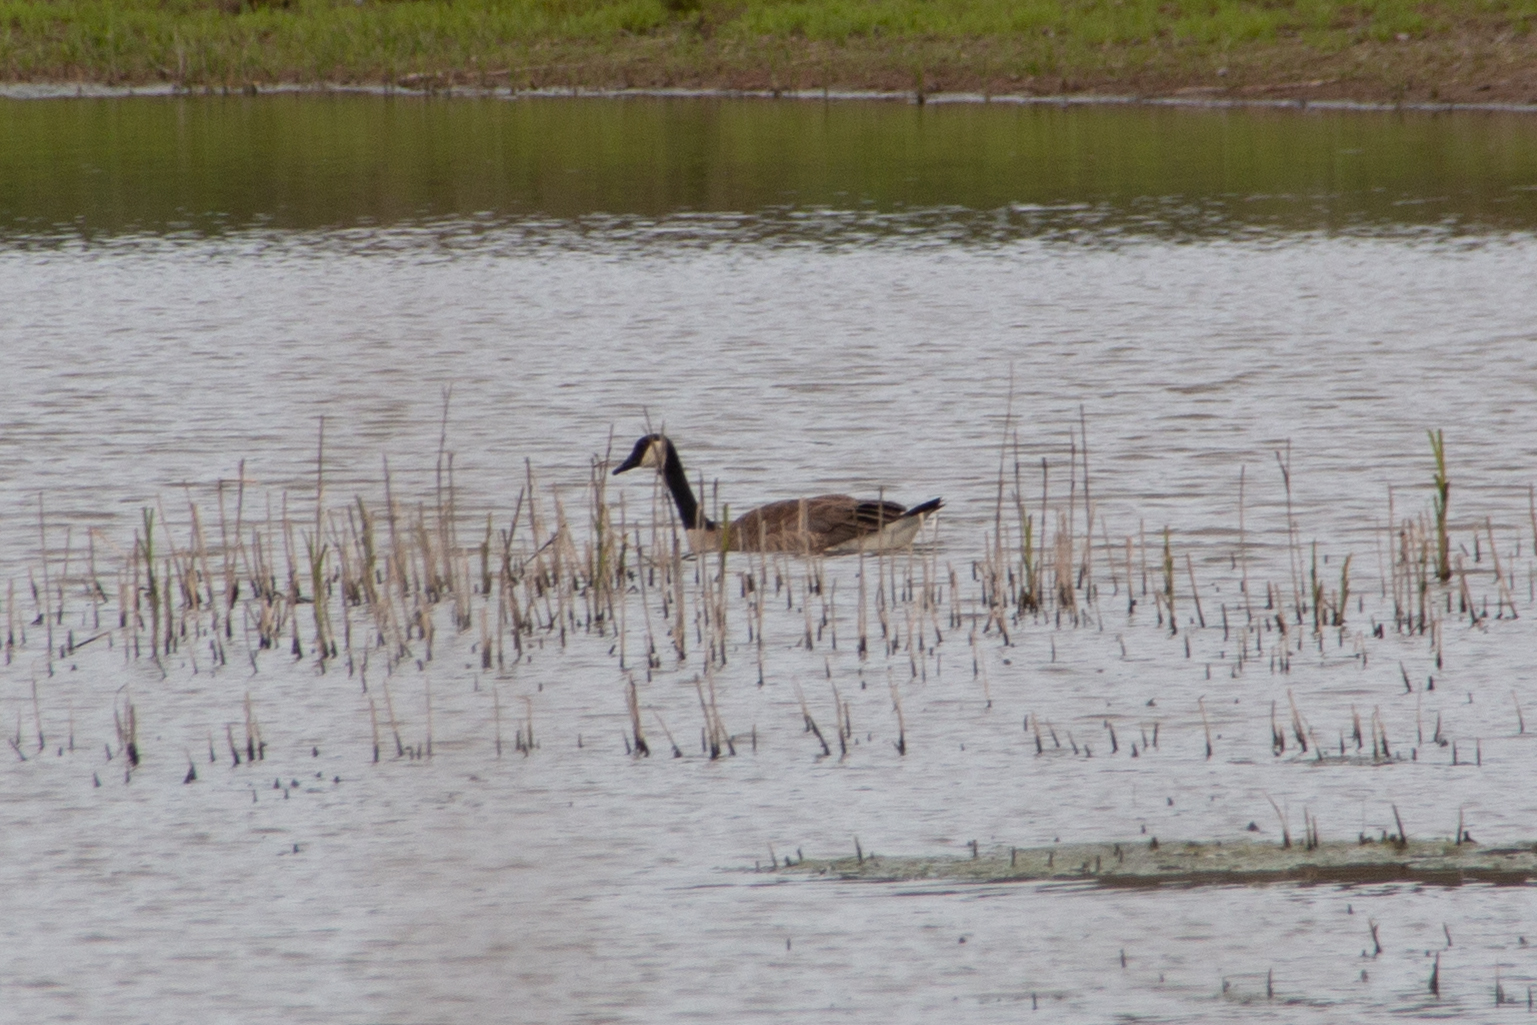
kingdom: Animalia
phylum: Chordata
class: Aves
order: Anseriformes
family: Anatidae
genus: Branta
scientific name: Branta canadensis
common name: Canada goose
